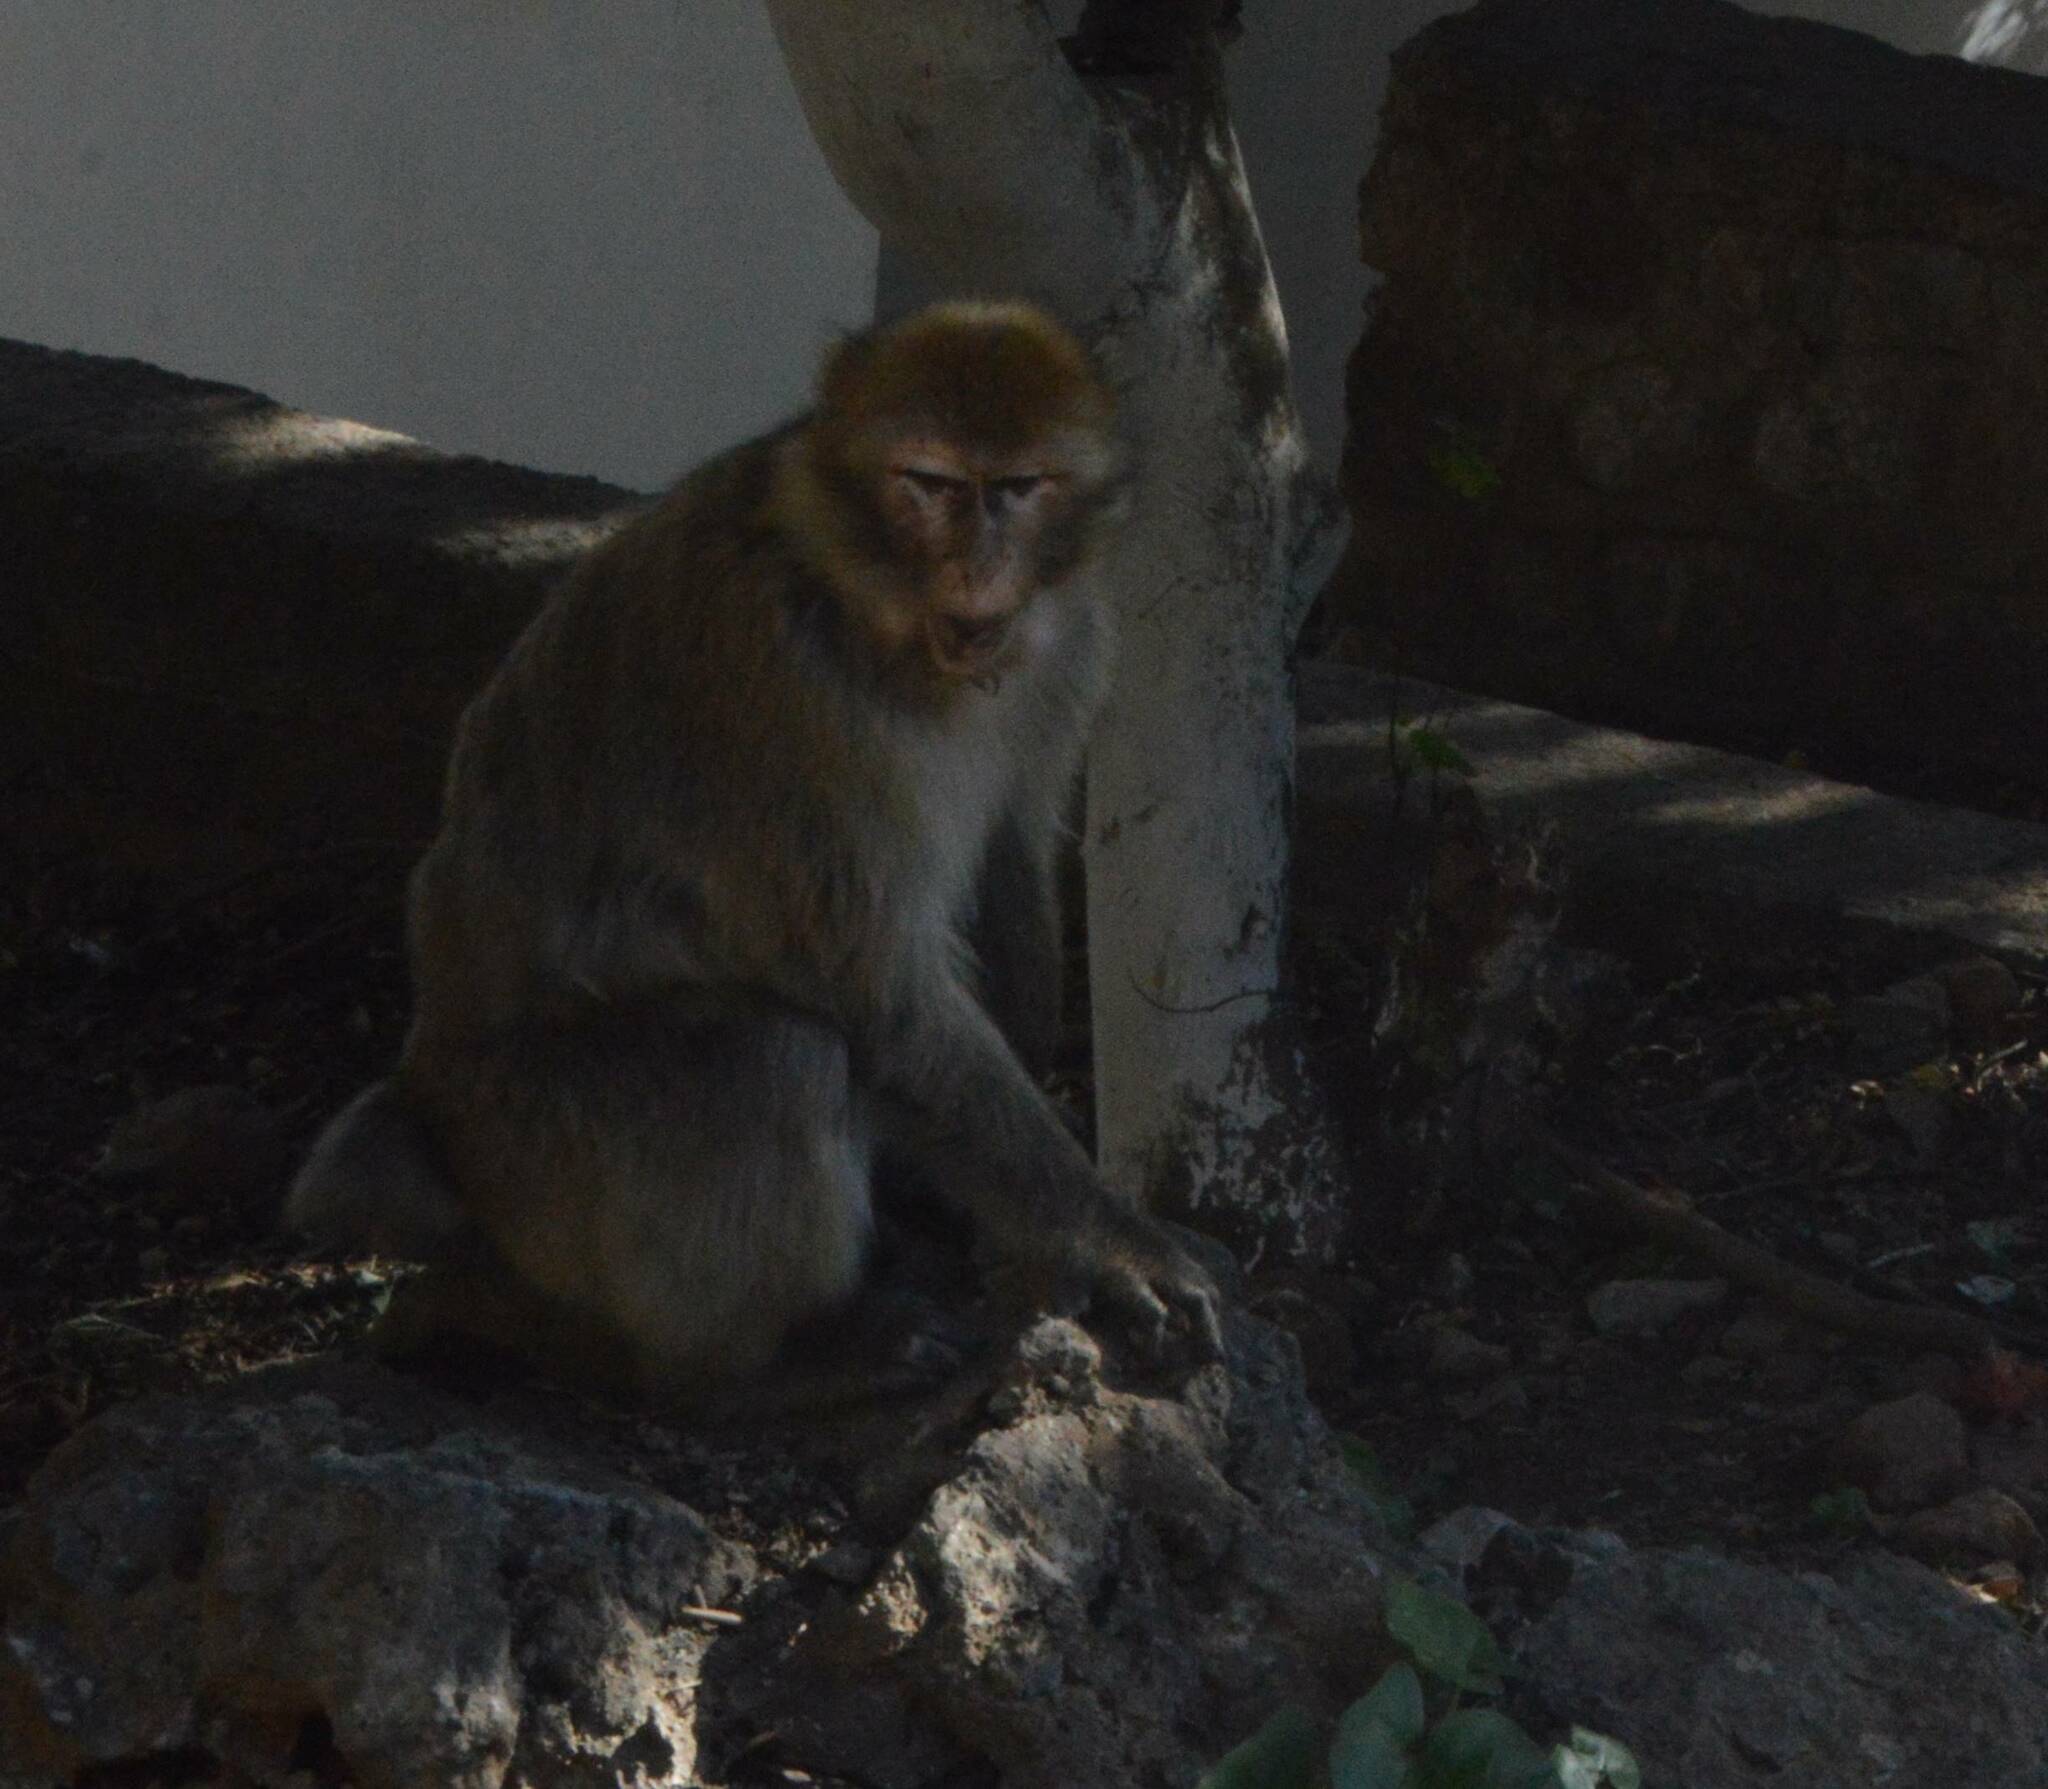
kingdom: Animalia
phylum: Chordata
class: Mammalia
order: Primates
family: Cercopithecidae
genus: Macaca
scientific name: Macaca sylvanus
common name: Barbary macaque
